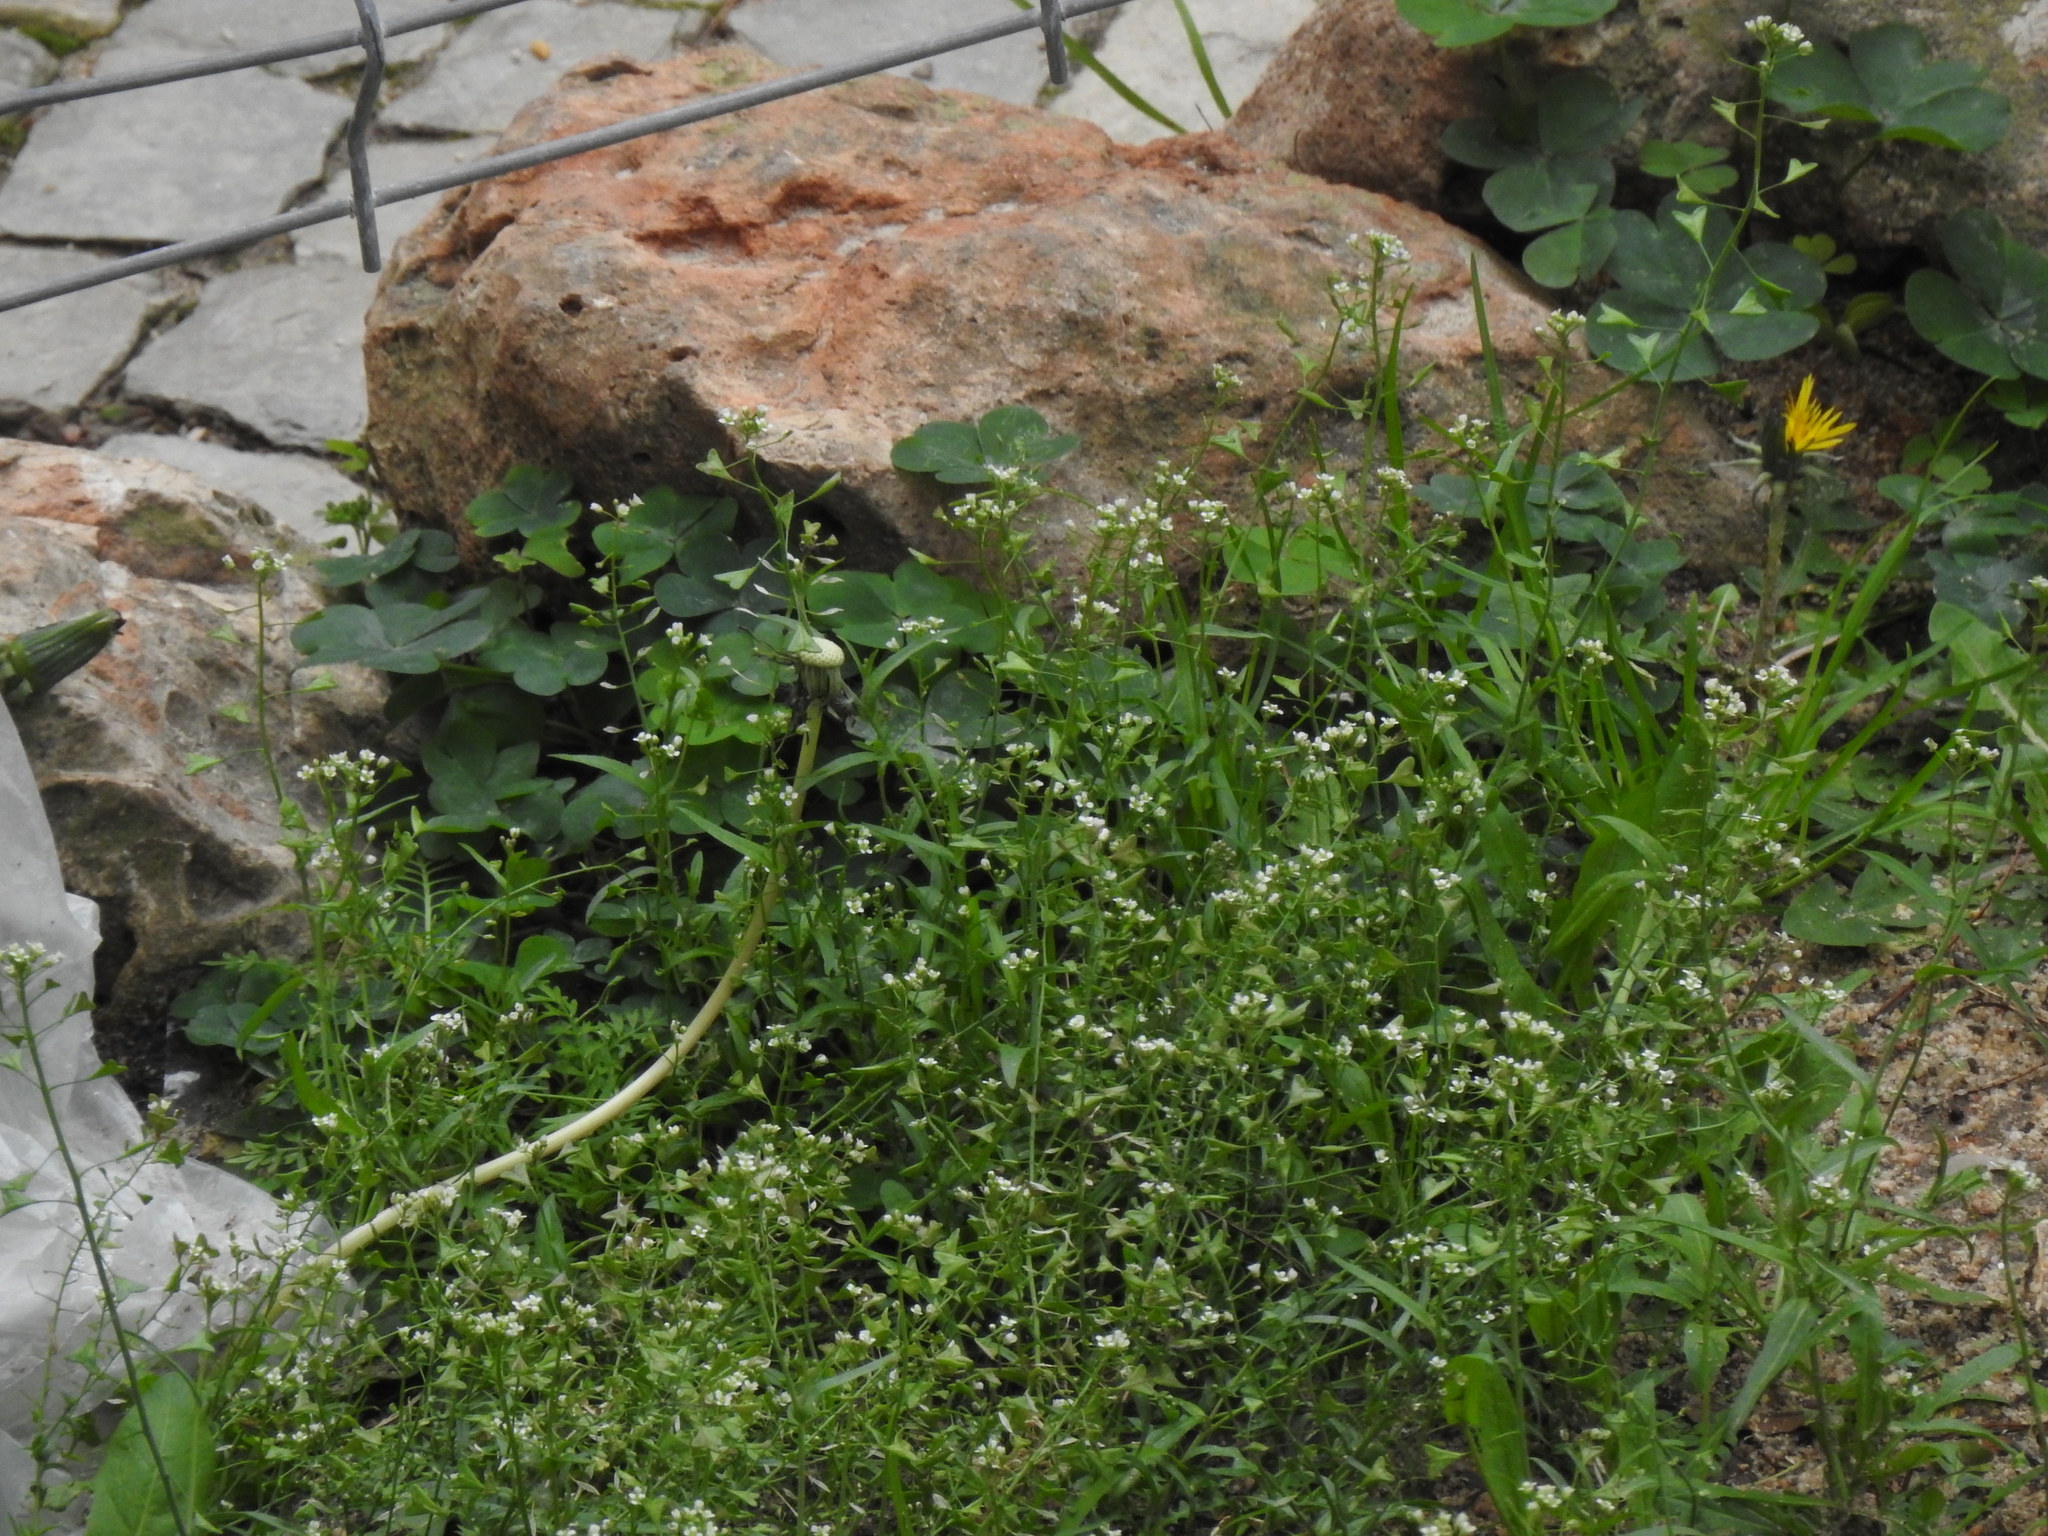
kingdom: Plantae
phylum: Tracheophyta
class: Magnoliopsida
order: Brassicales
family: Brassicaceae
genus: Capsella
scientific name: Capsella bursa-pastoris
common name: Shepherd's purse
